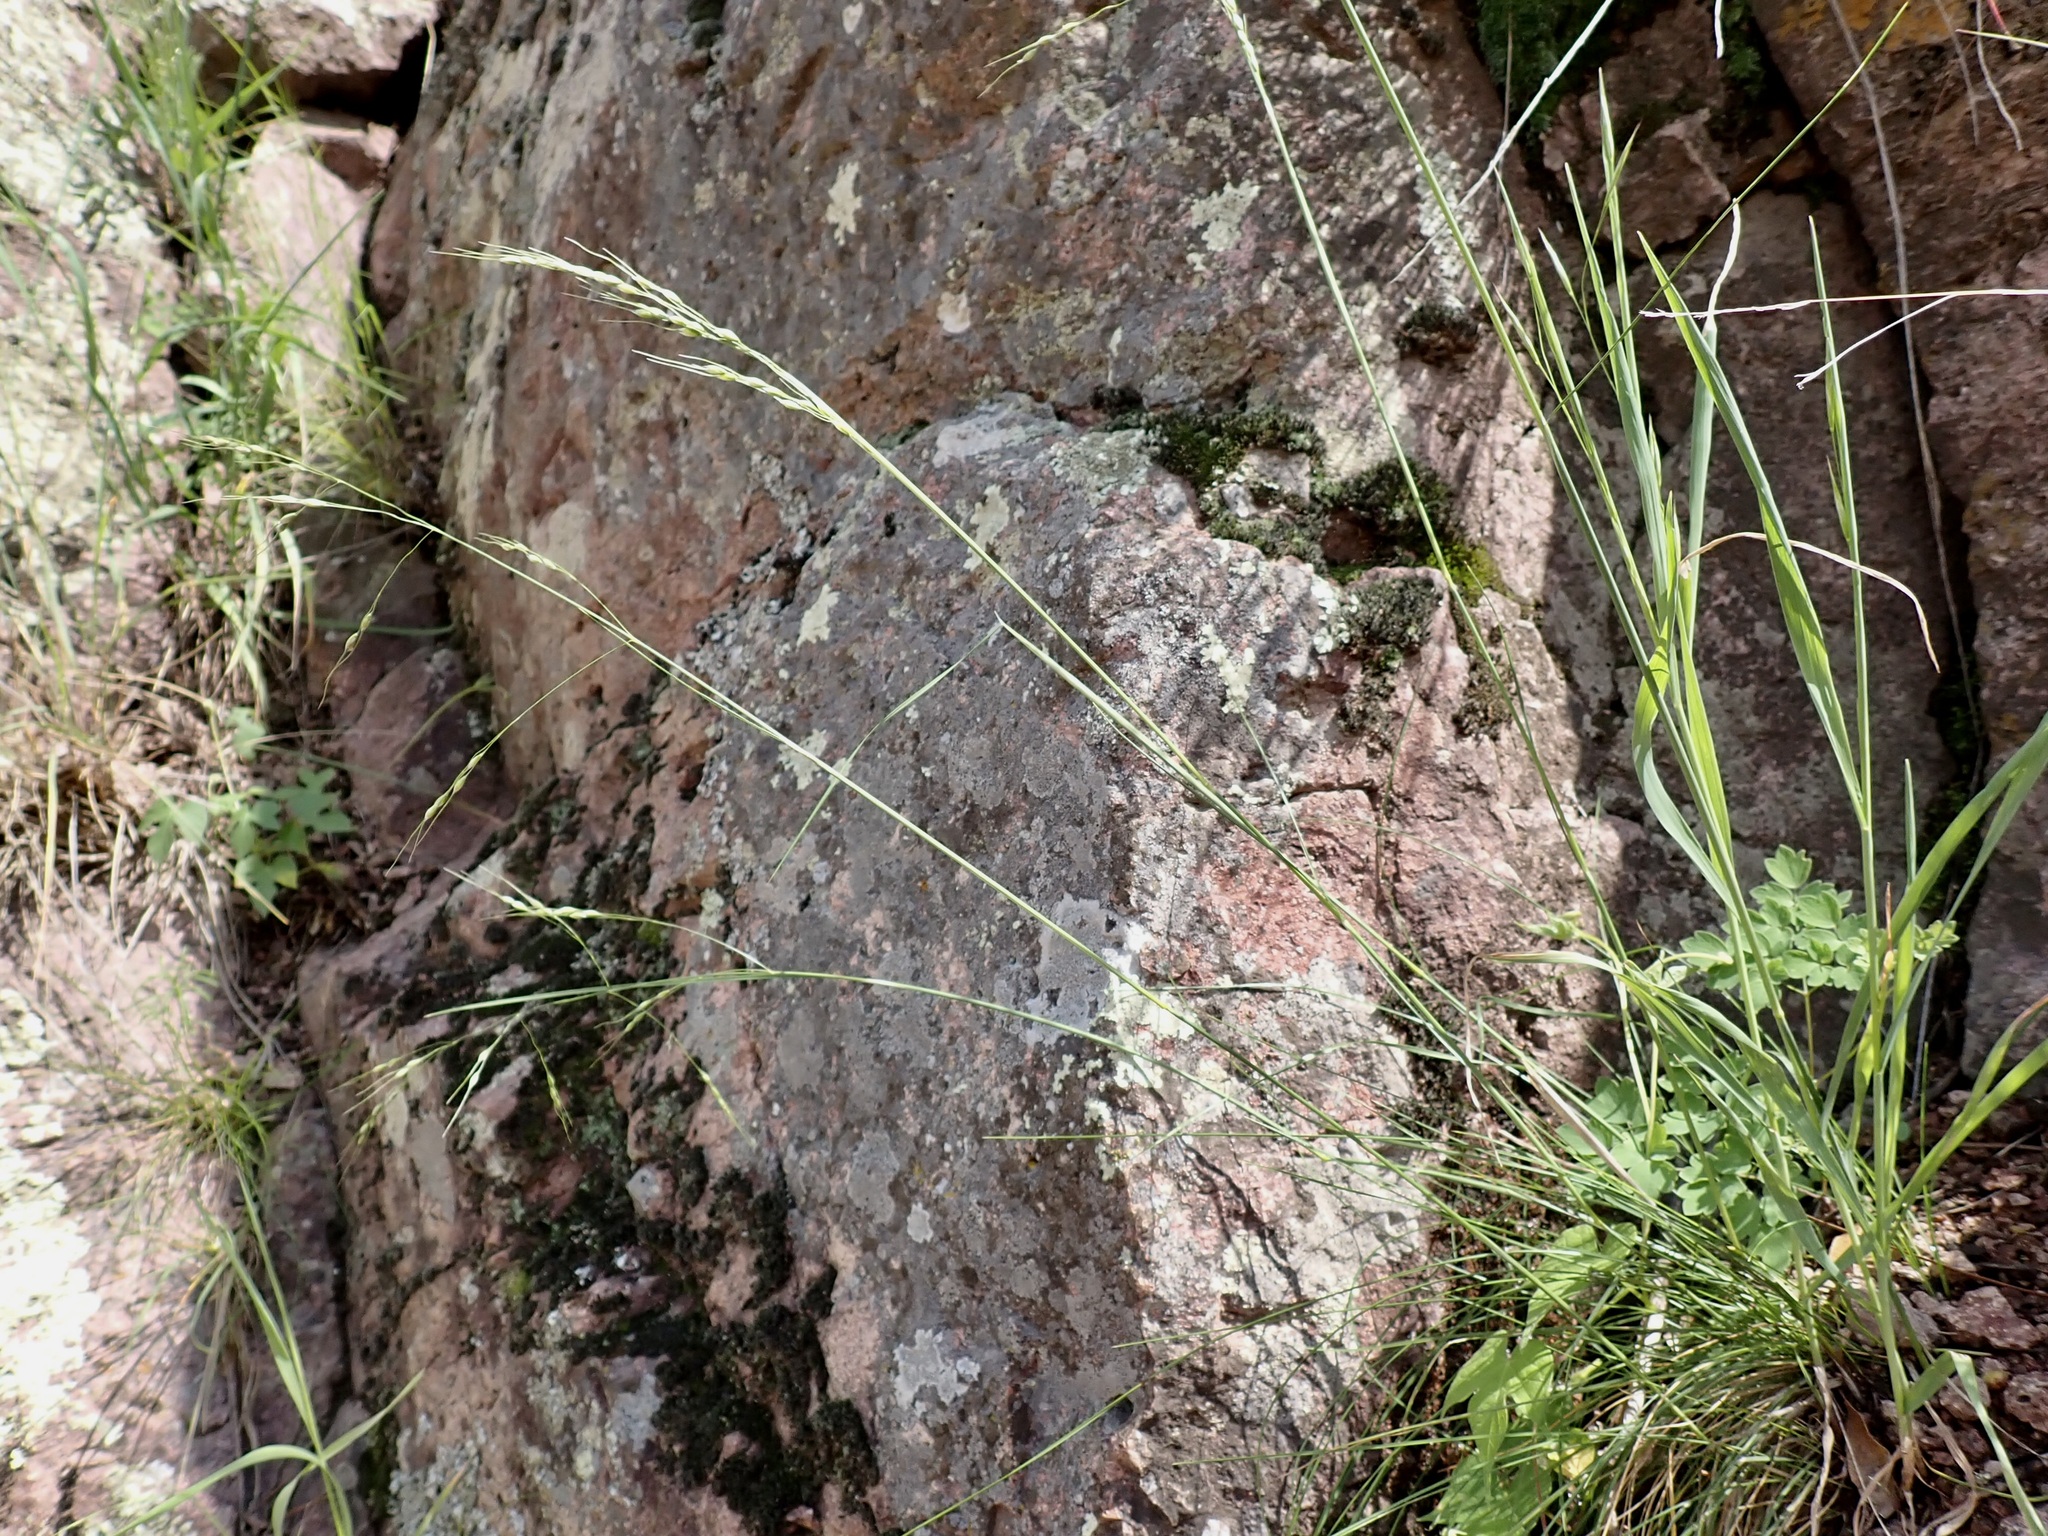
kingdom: Plantae
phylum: Tracheophyta
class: Liliopsida
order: Poales
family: Poaceae
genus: Piptochaetium
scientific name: Piptochaetium fimbriatum
